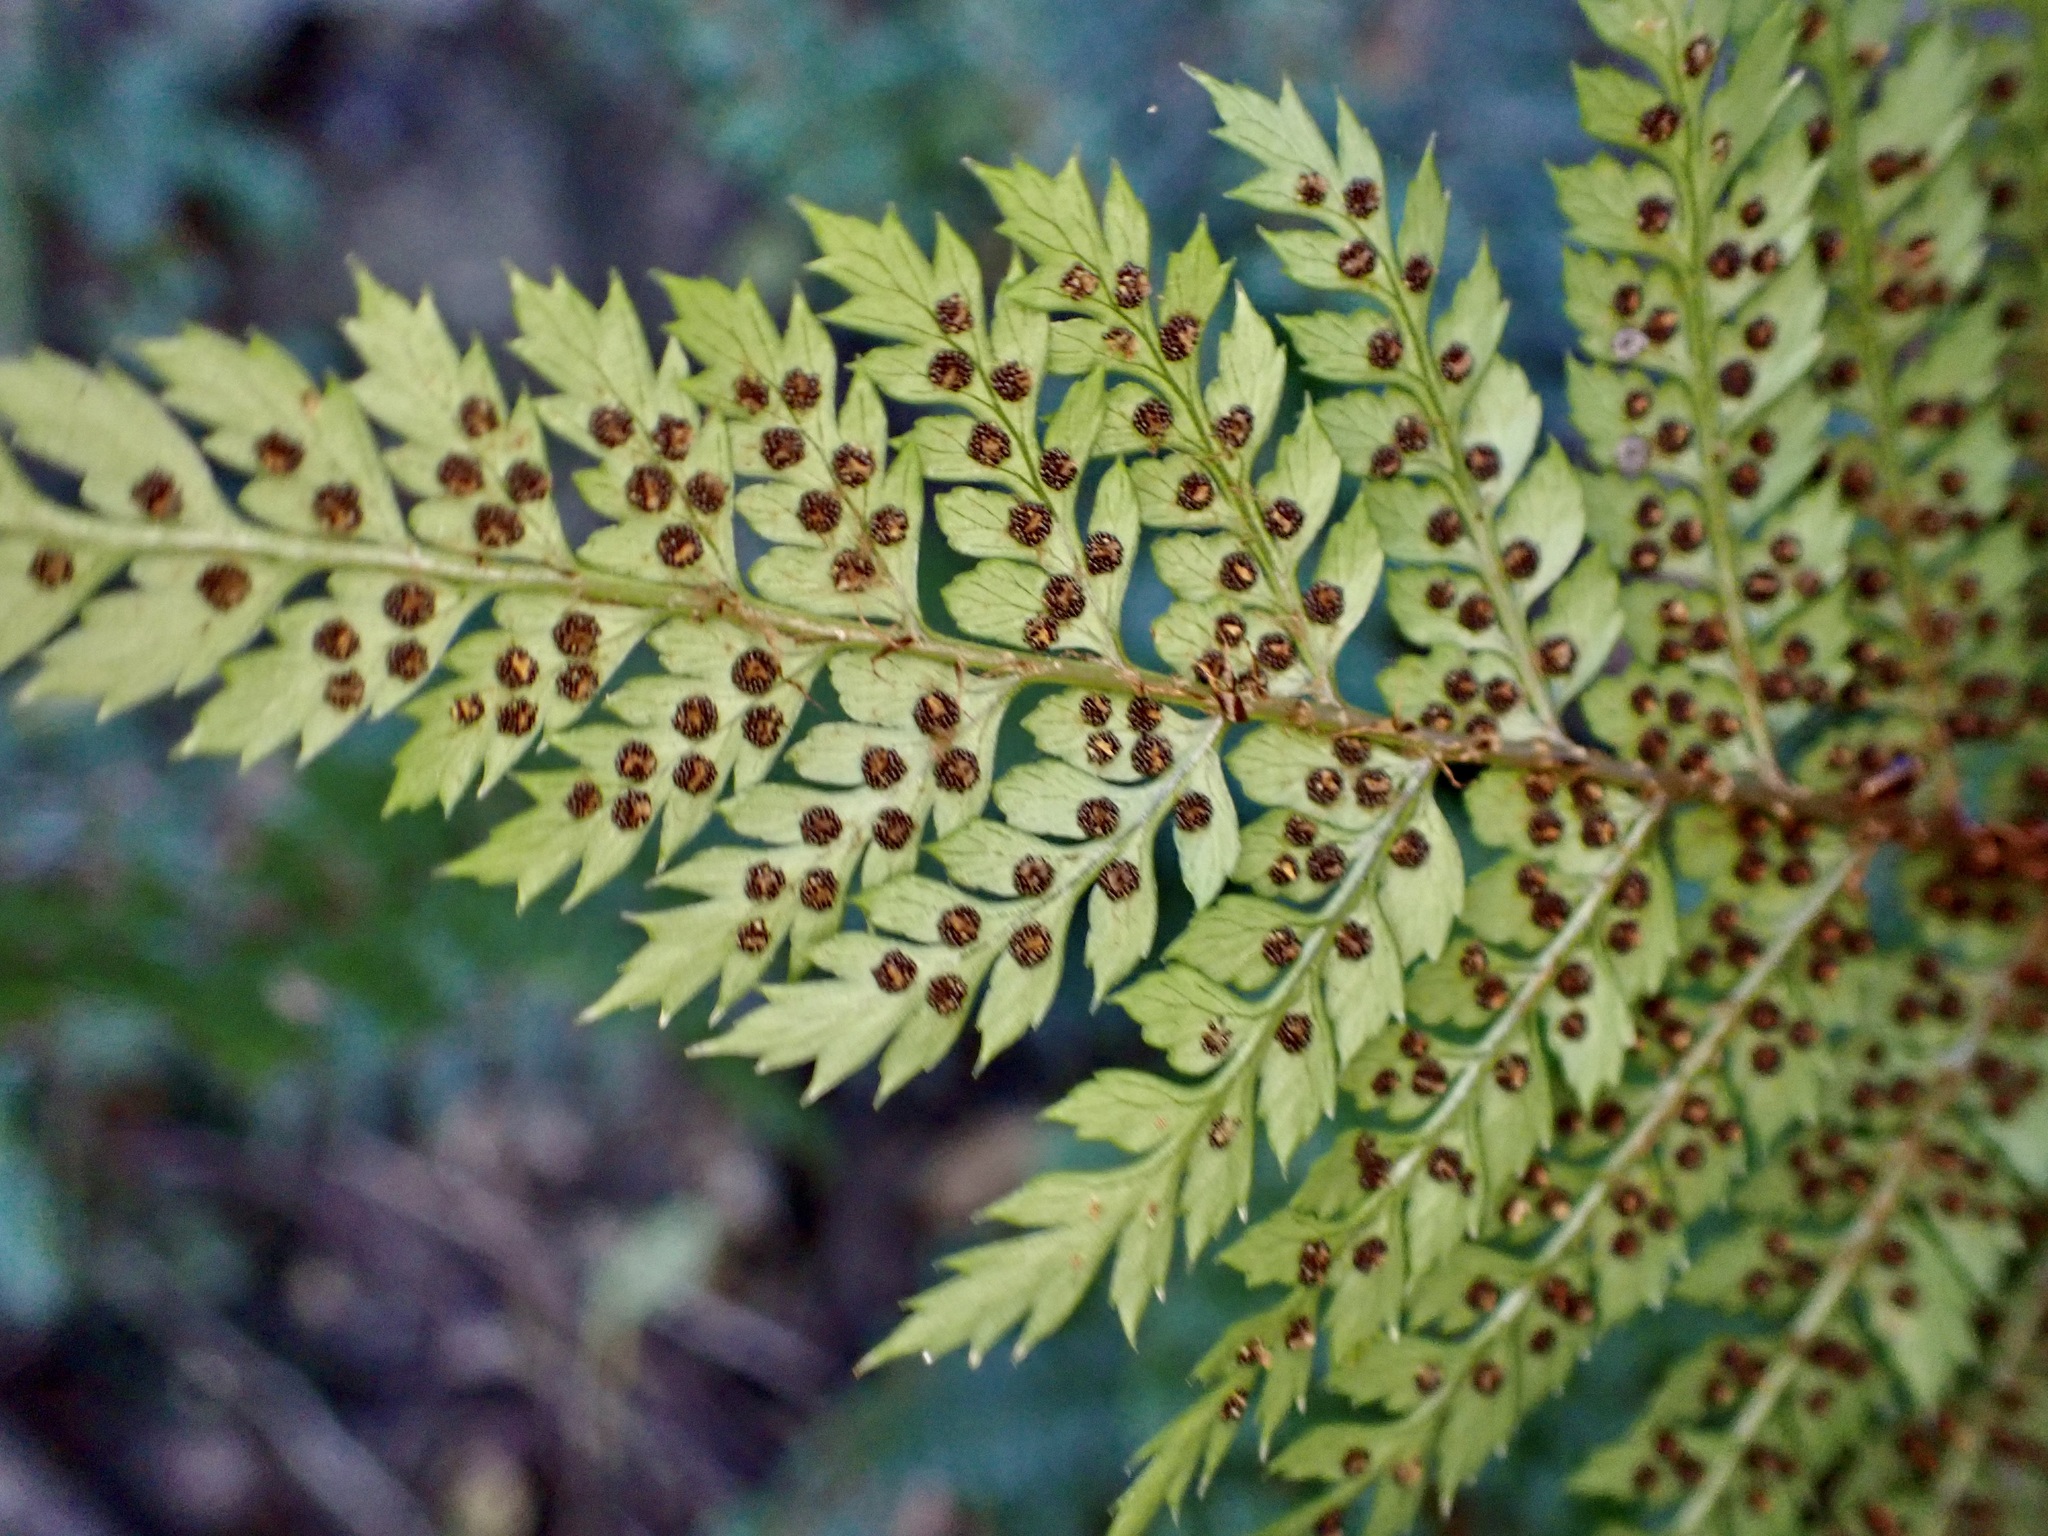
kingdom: Plantae
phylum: Tracheophyta
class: Polypodiopsida
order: Polypodiales
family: Dryopteridaceae
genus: Polystichum
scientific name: Polystichum vestitum
